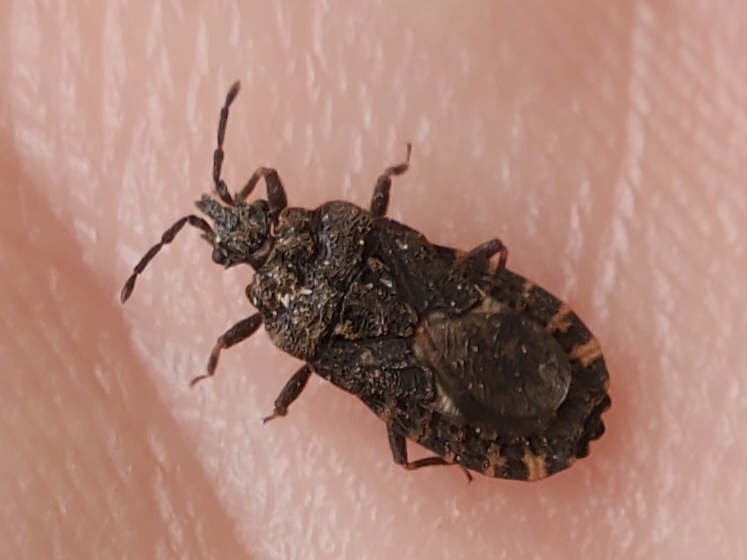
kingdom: Animalia
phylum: Arthropoda
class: Insecta
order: Hemiptera
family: Aradidae
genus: Mezira
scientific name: Mezira
